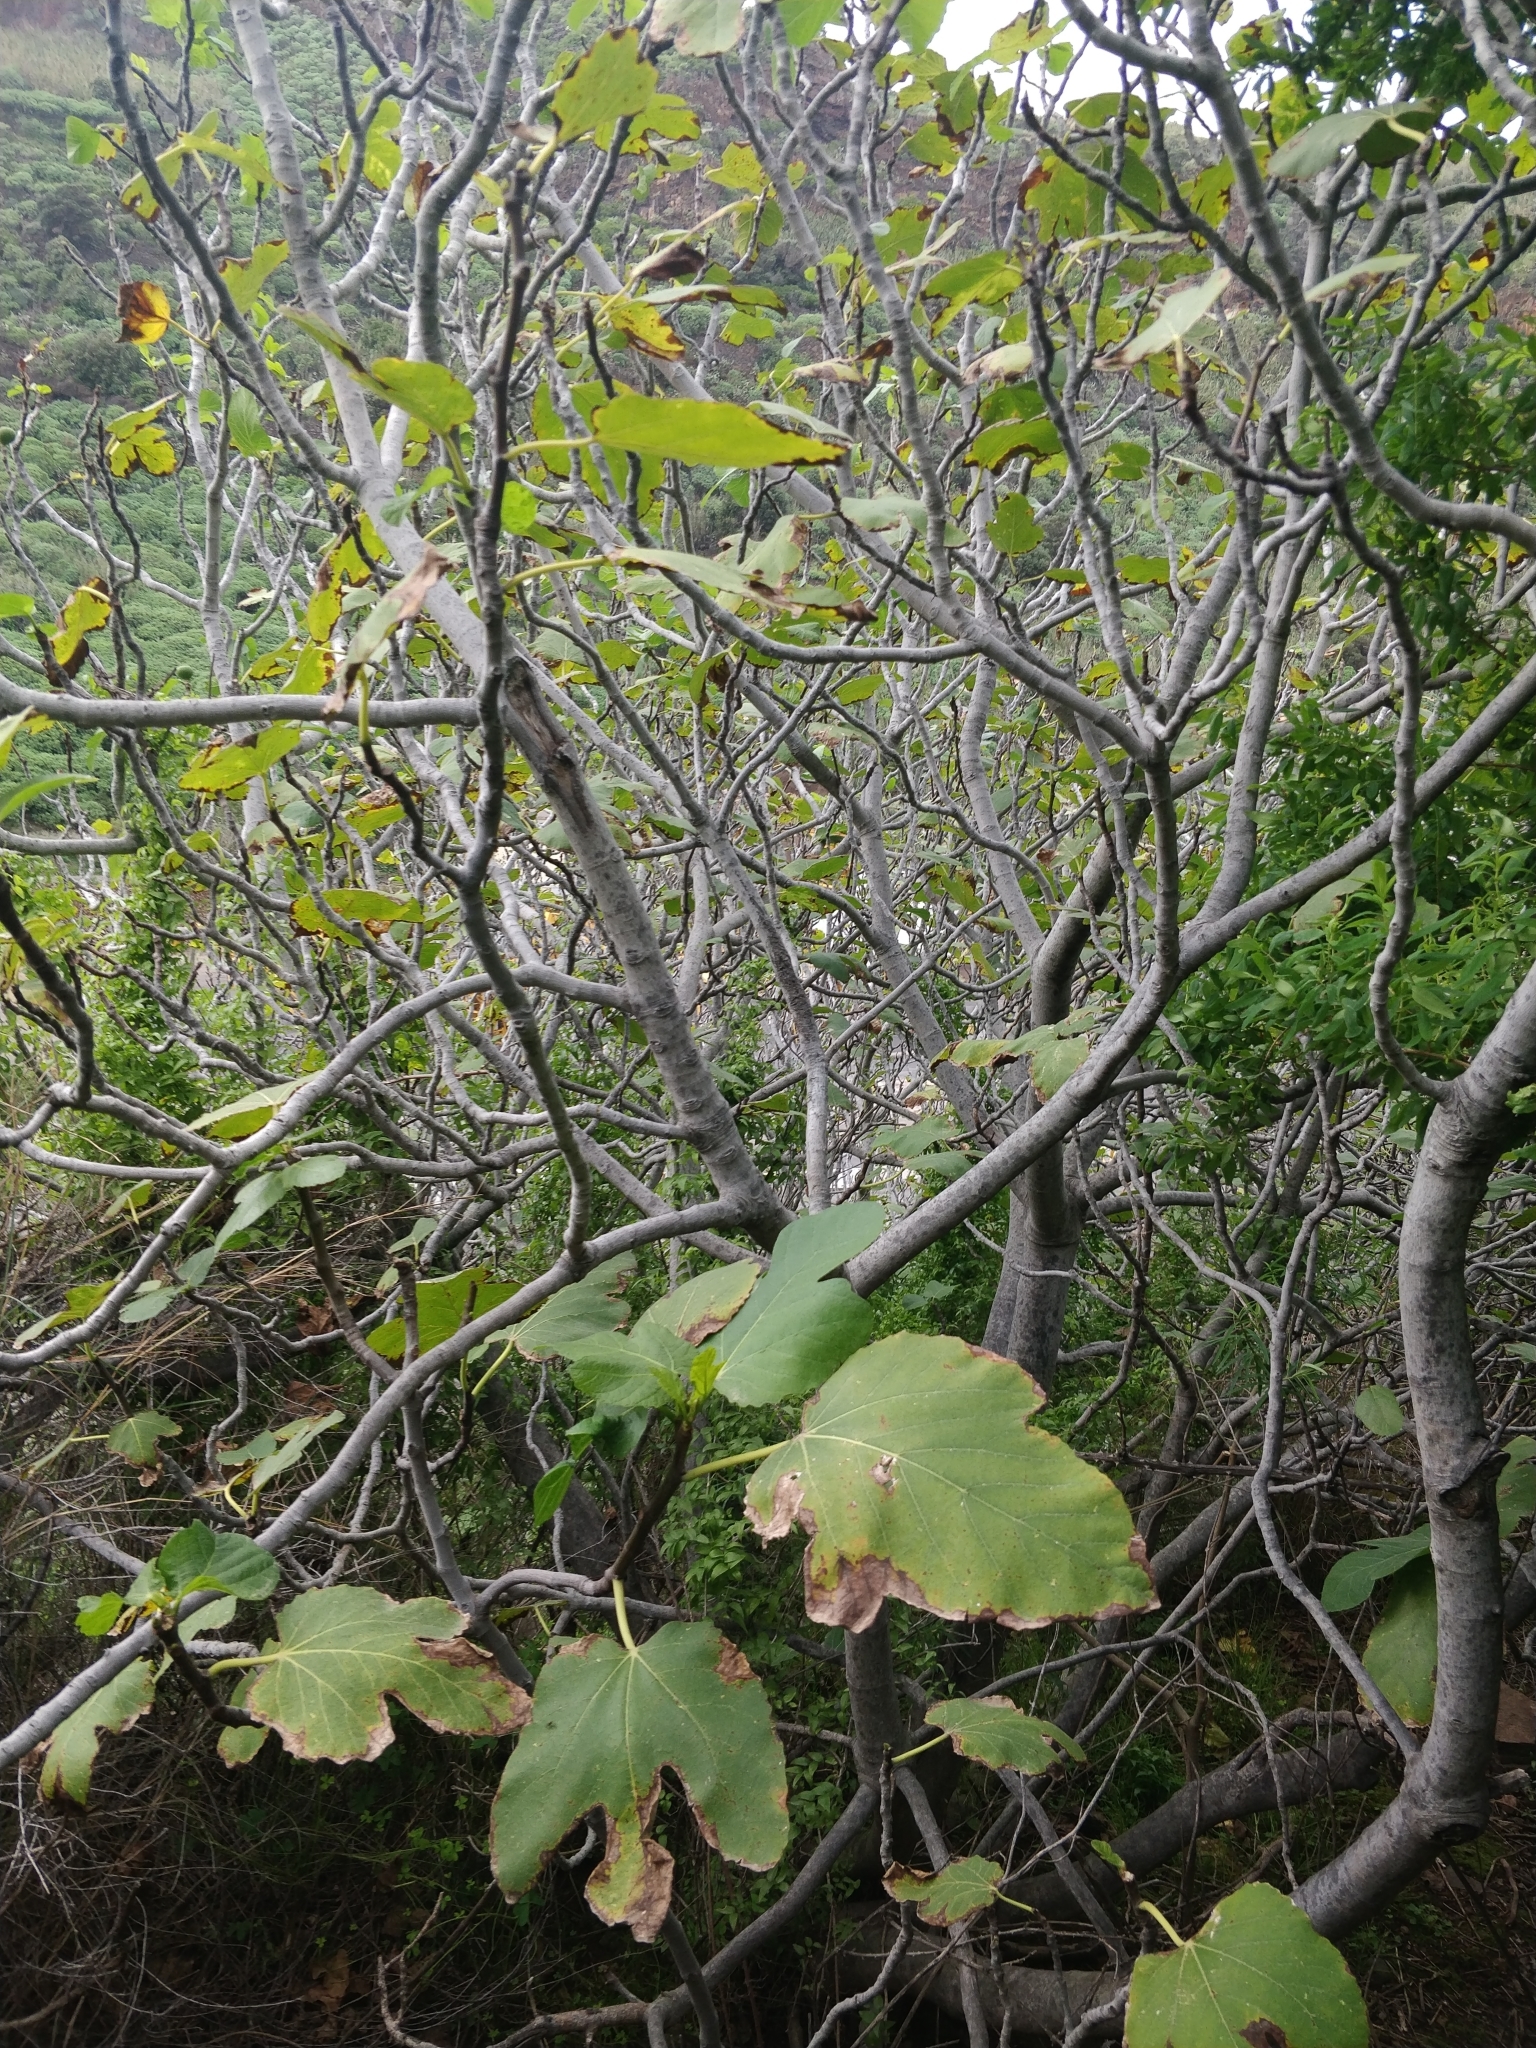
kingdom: Plantae
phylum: Tracheophyta
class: Magnoliopsida
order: Rosales
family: Moraceae
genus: Ficus
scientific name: Ficus carica
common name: Fig
